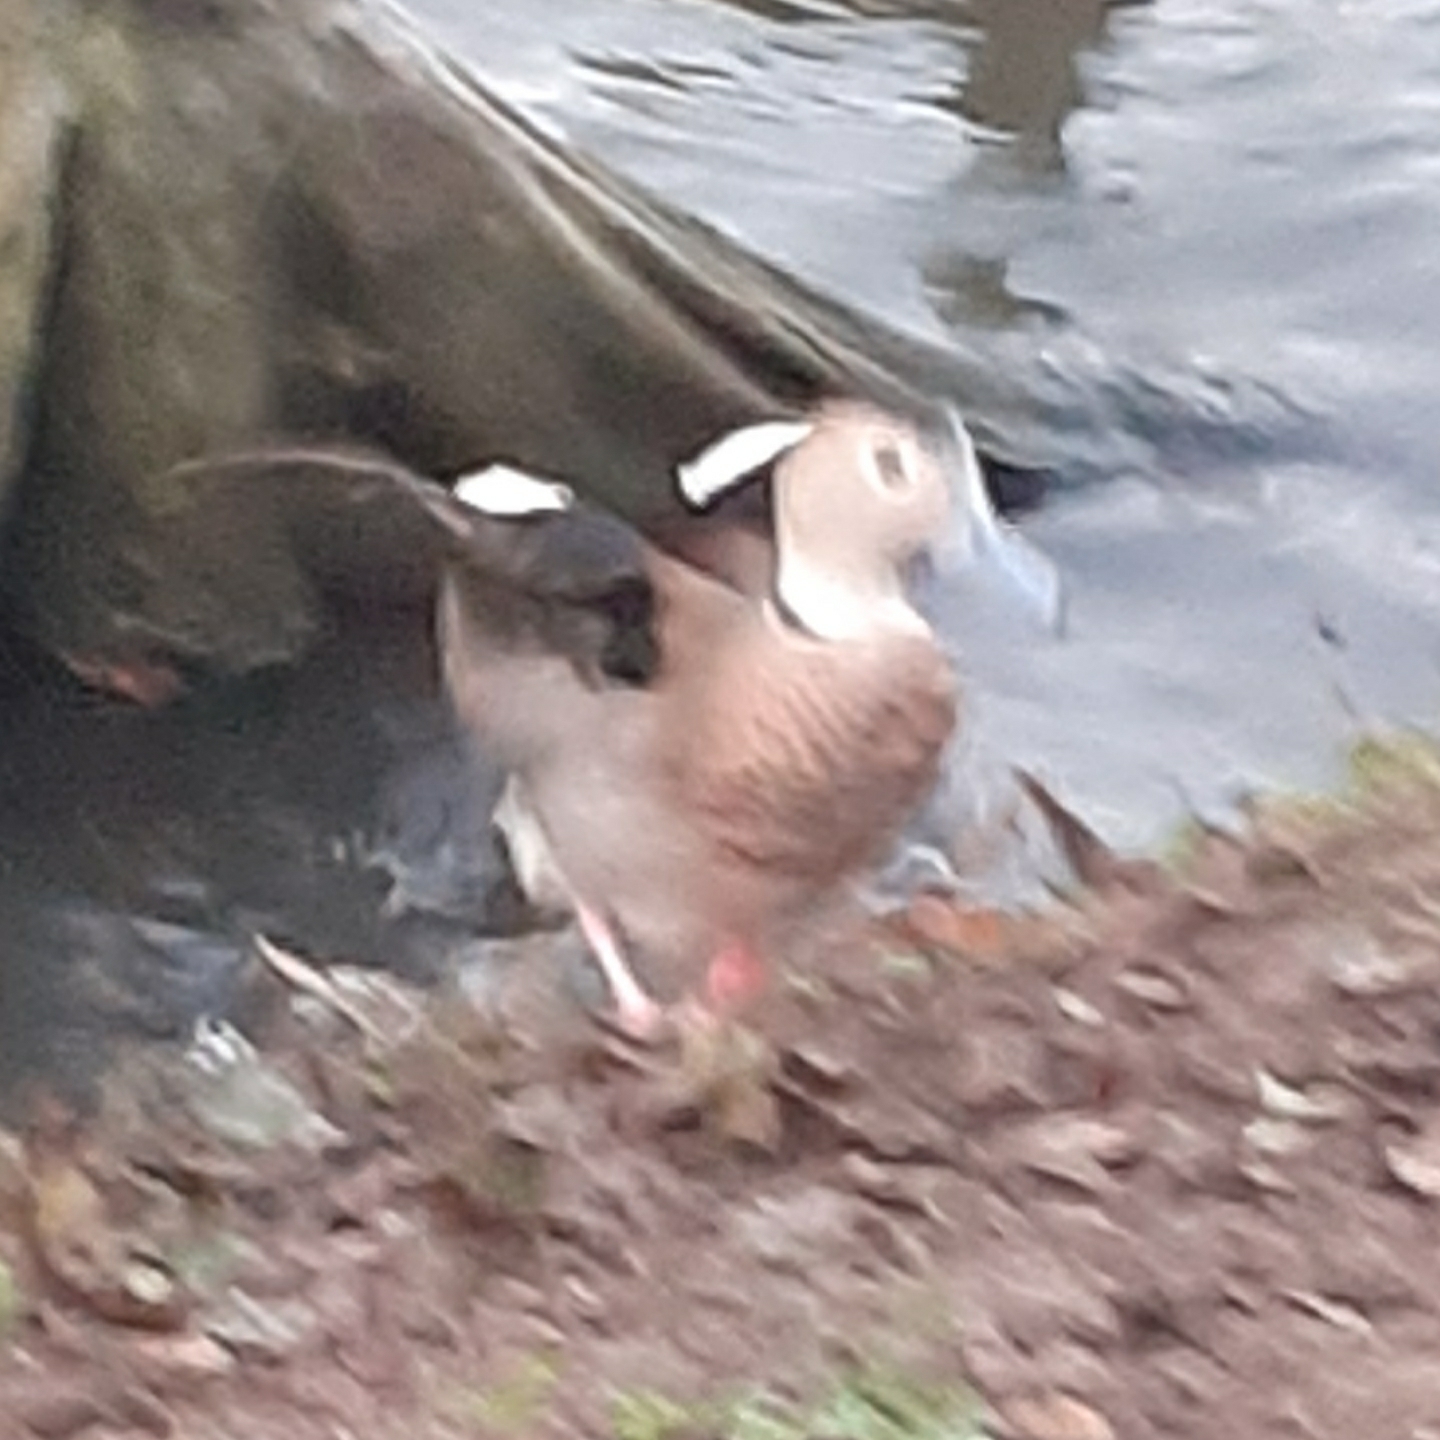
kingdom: Animalia
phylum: Chordata
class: Aves
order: Anseriformes
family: Anatidae
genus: Callonetta
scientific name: Callonetta leucophrys
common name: Ringed teal
